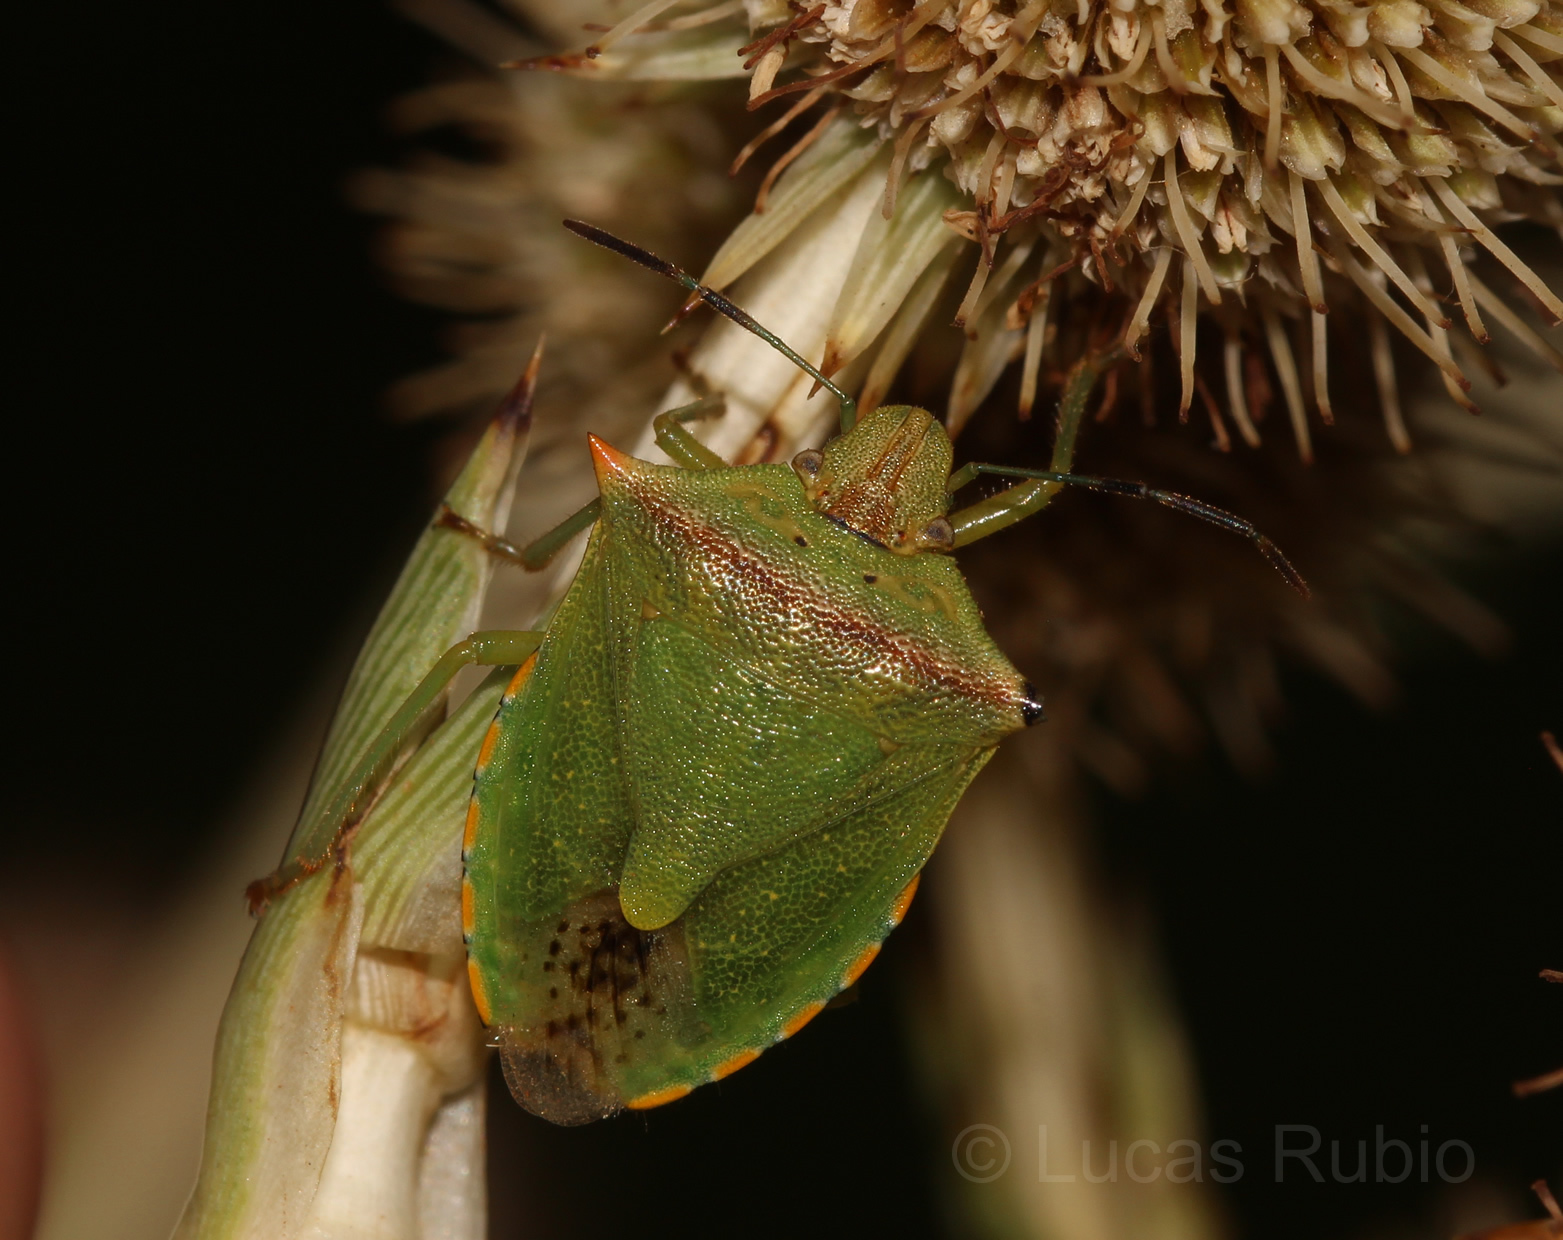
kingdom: Animalia
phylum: Arthropoda
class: Insecta
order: Hemiptera
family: Pentatomidae
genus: Thyanta
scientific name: Thyanta perditor
